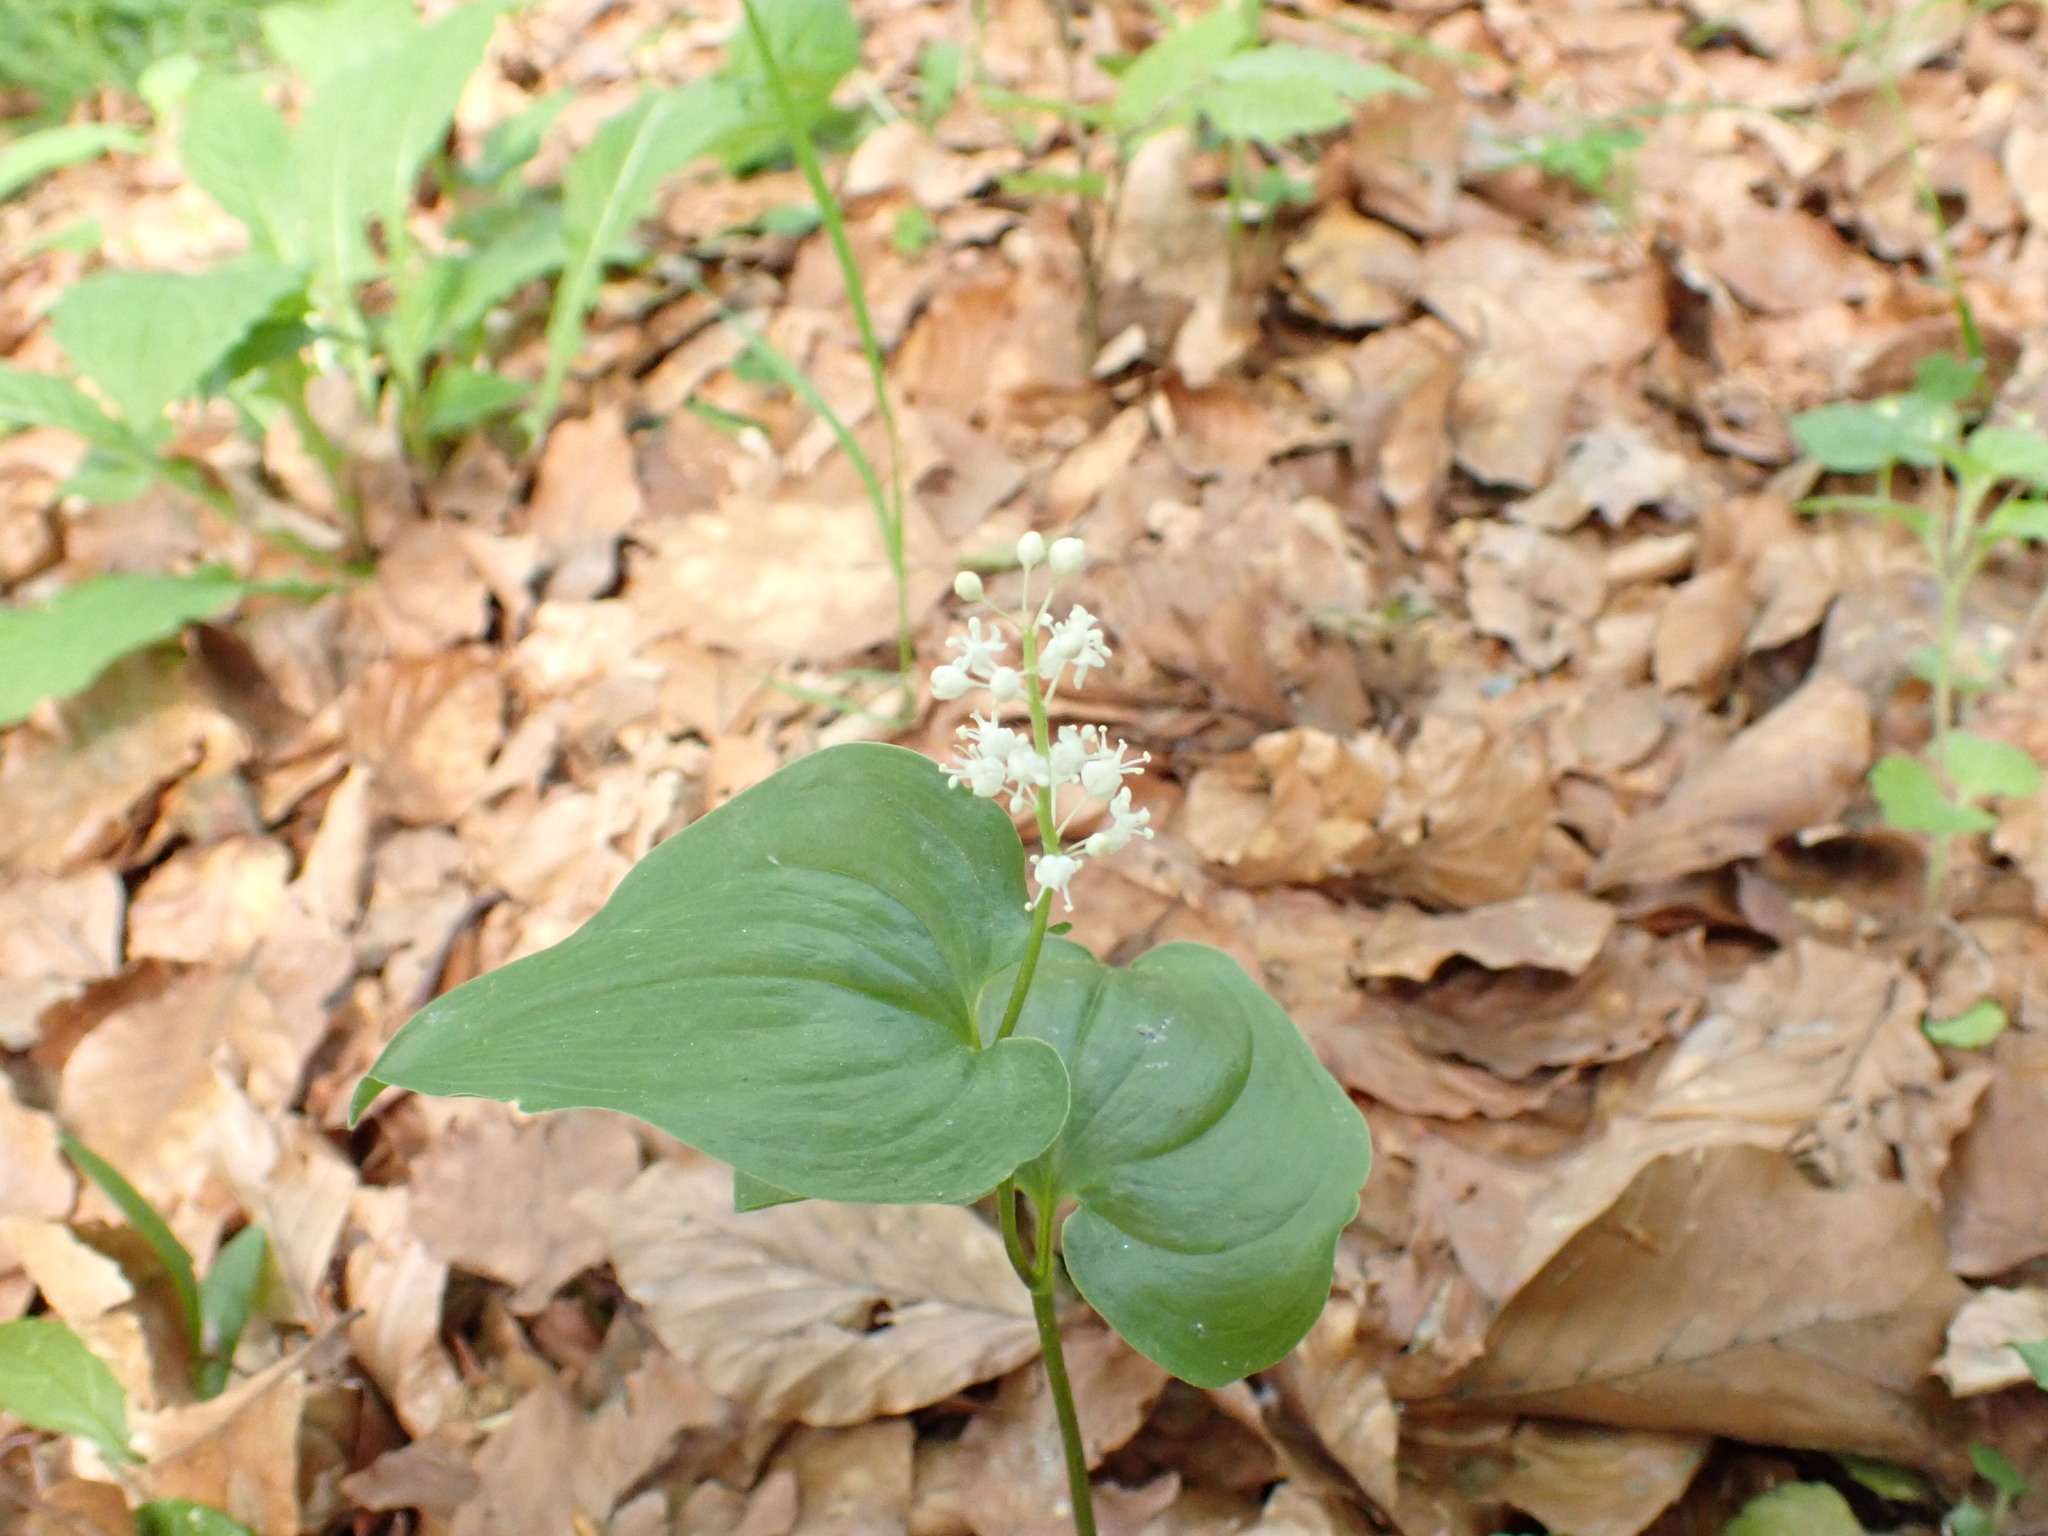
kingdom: Plantae
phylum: Tracheophyta
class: Liliopsida
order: Asparagales
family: Asparagaceae
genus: Maianthemum
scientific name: Maianthemum bifolium
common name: May lily
